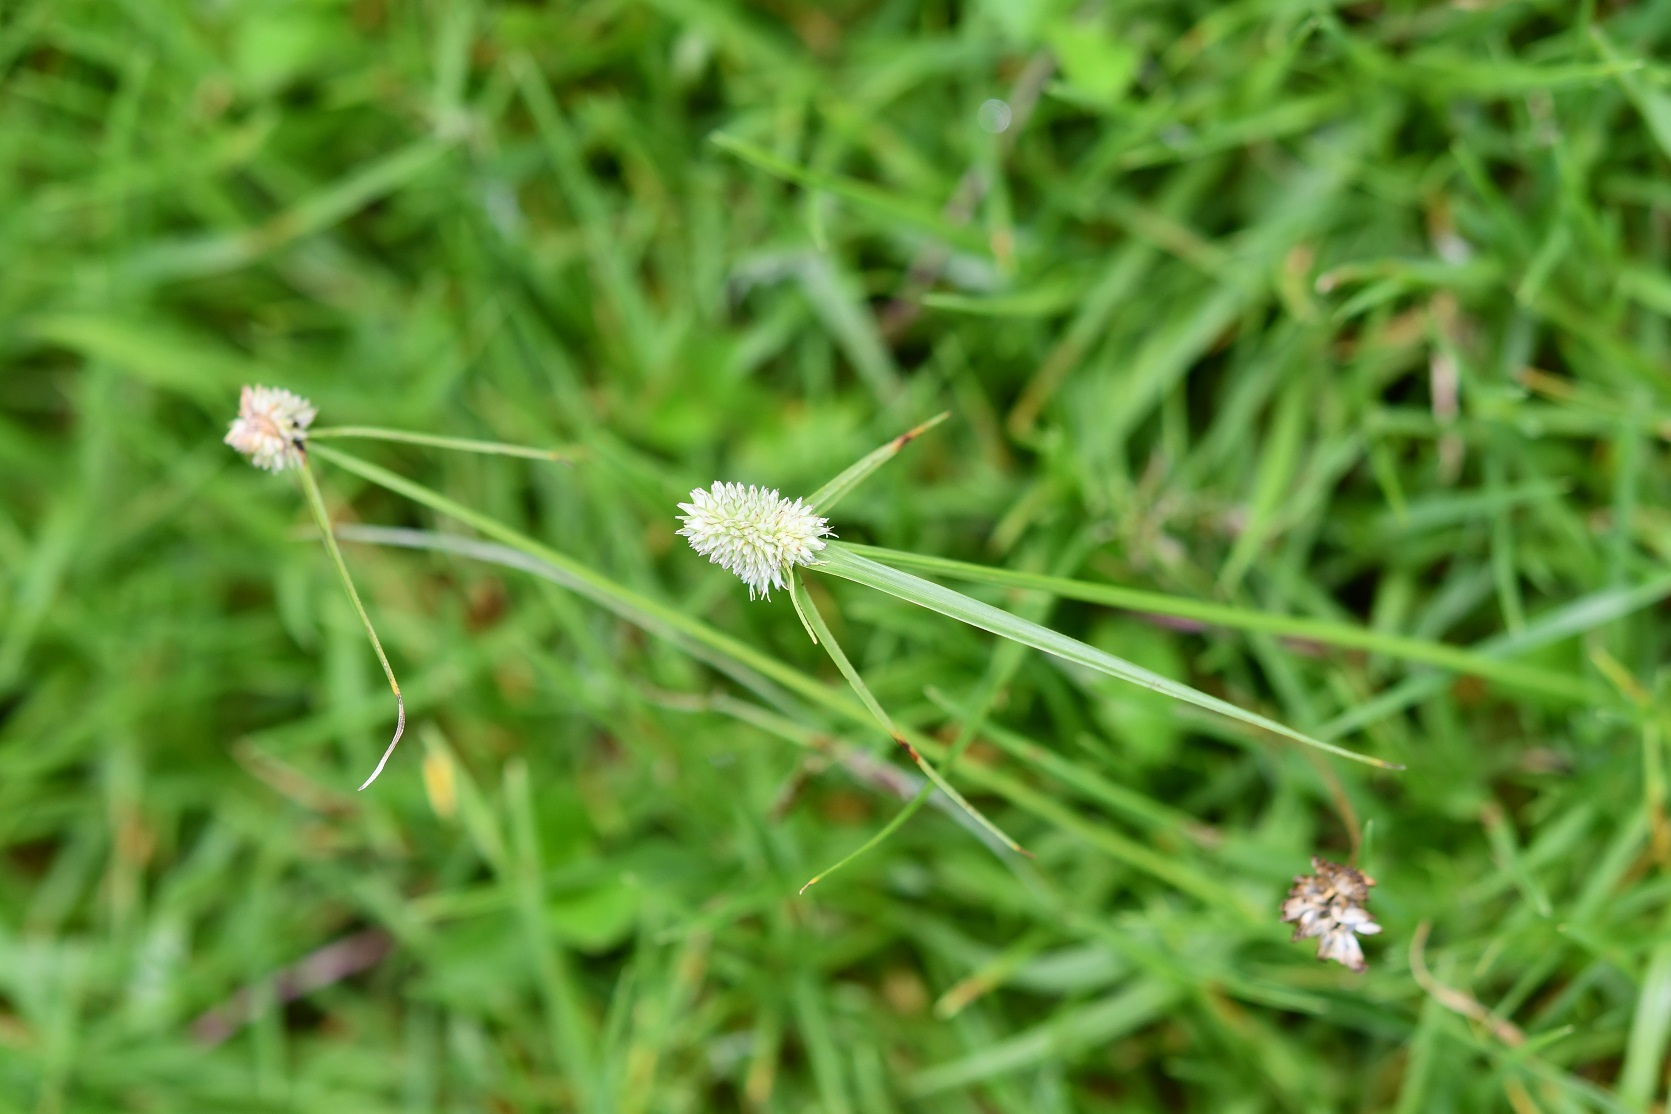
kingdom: Plantae
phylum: Tracheophyta
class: Liliopsida
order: Poales
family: Cyperaceae
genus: Cyperus
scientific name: Cyperus sesquiflorus
